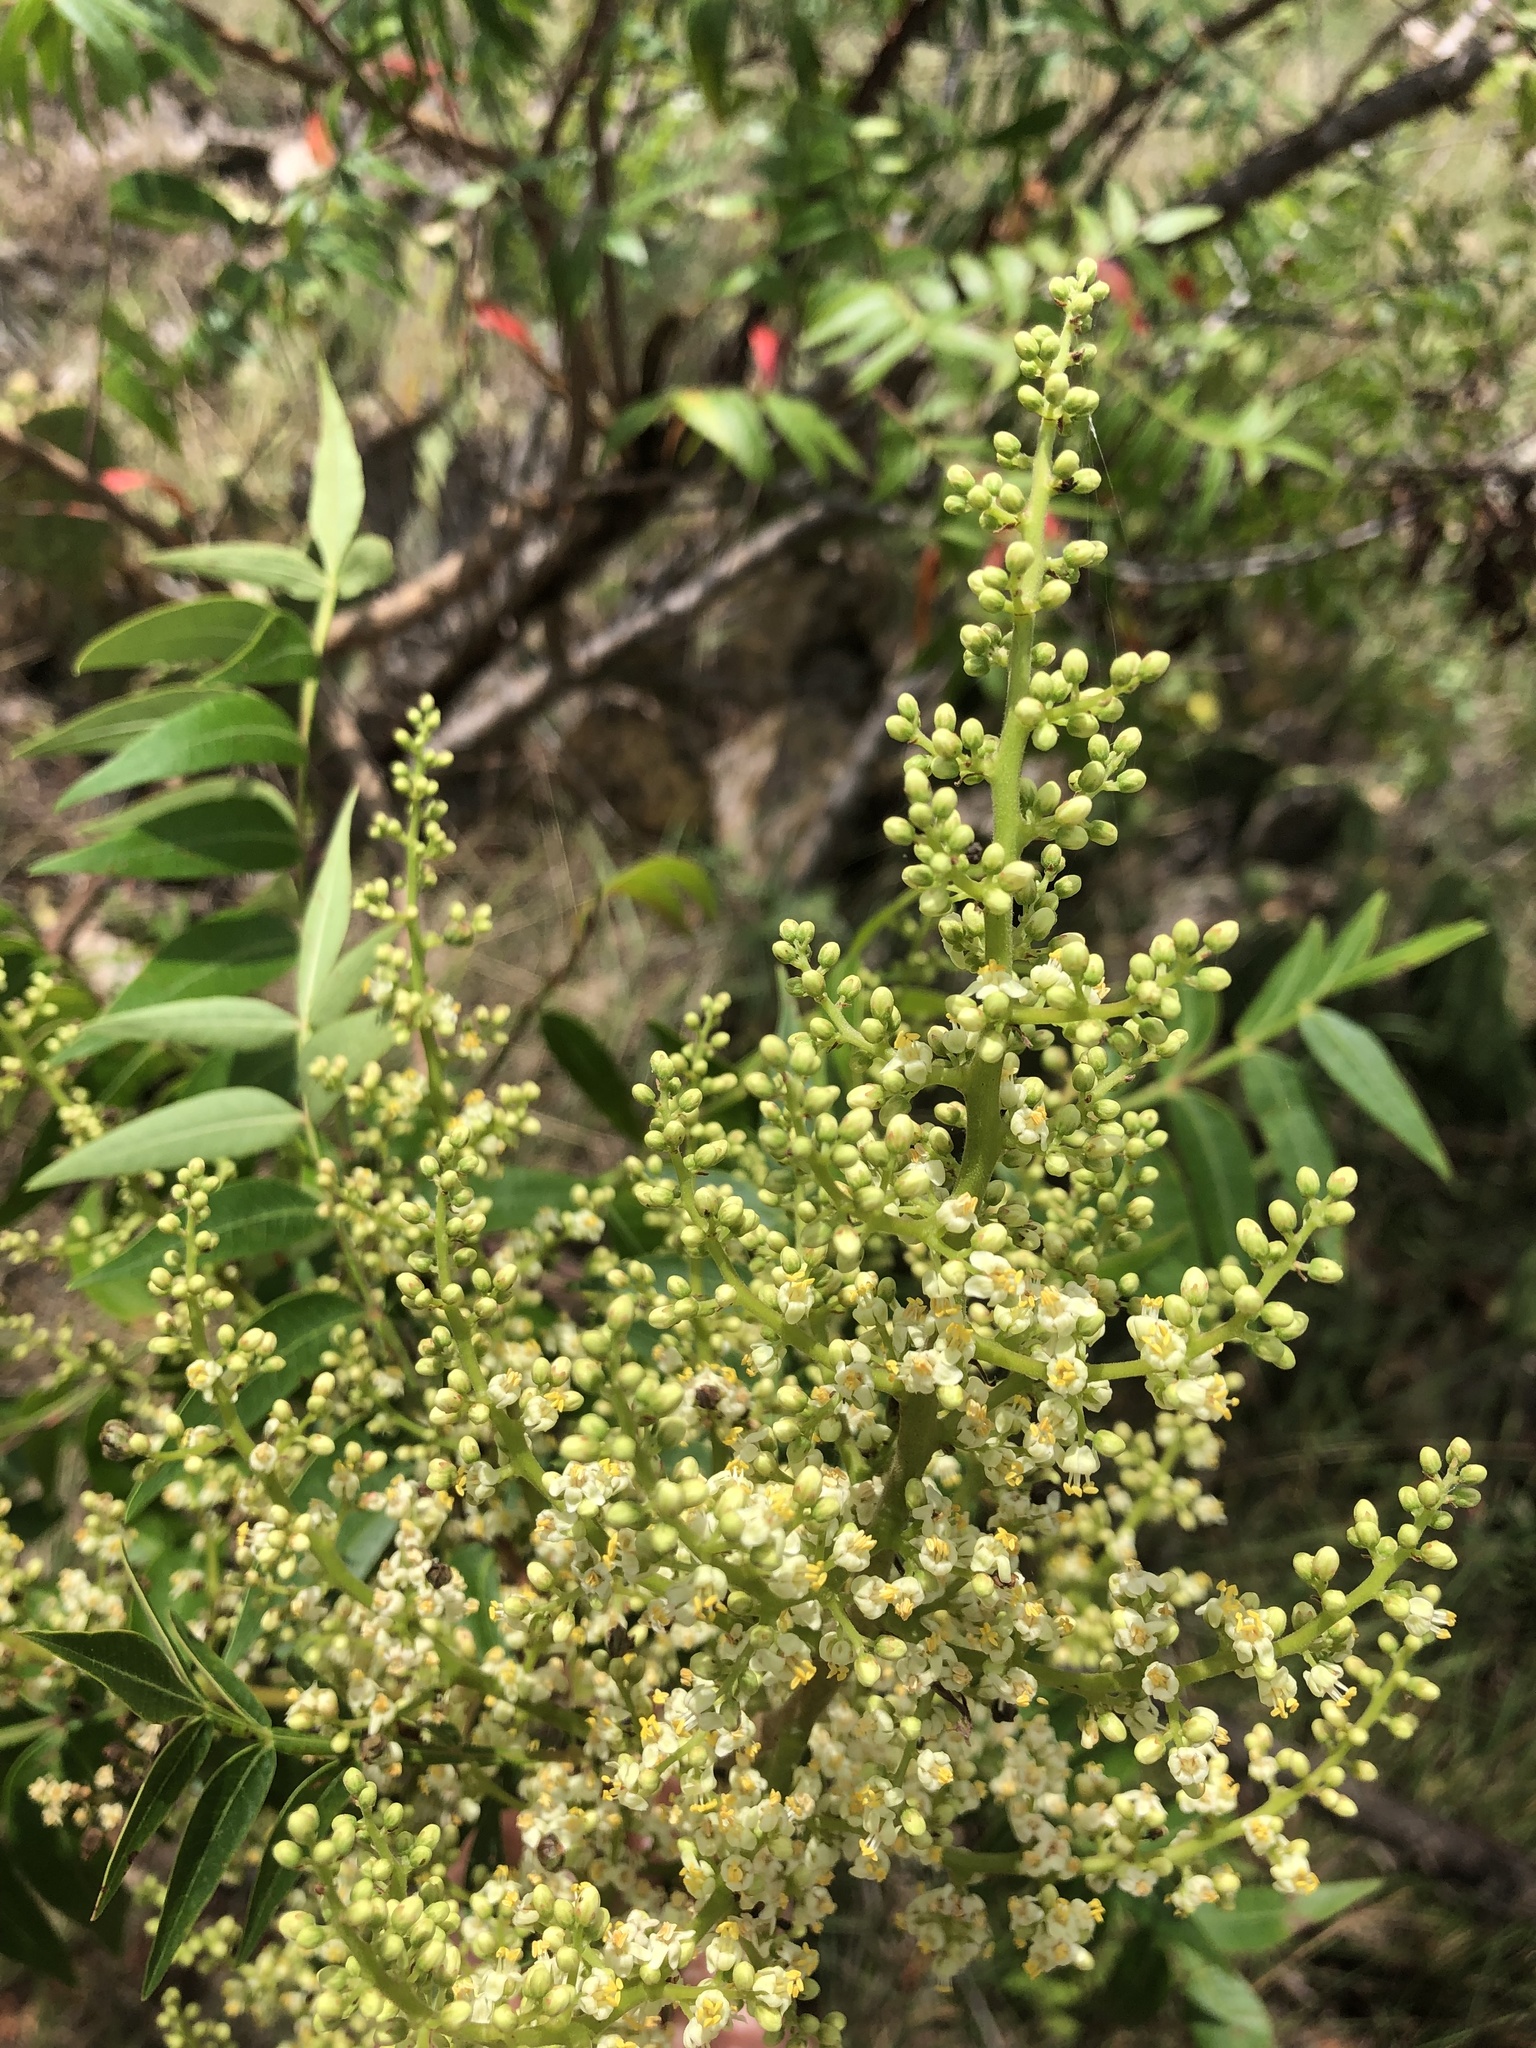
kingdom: Plantae
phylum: Tracheophyta
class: Magnoliopsida
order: Sapindales
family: Anacardiaceae
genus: Rhus
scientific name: Rhus lanceolata
